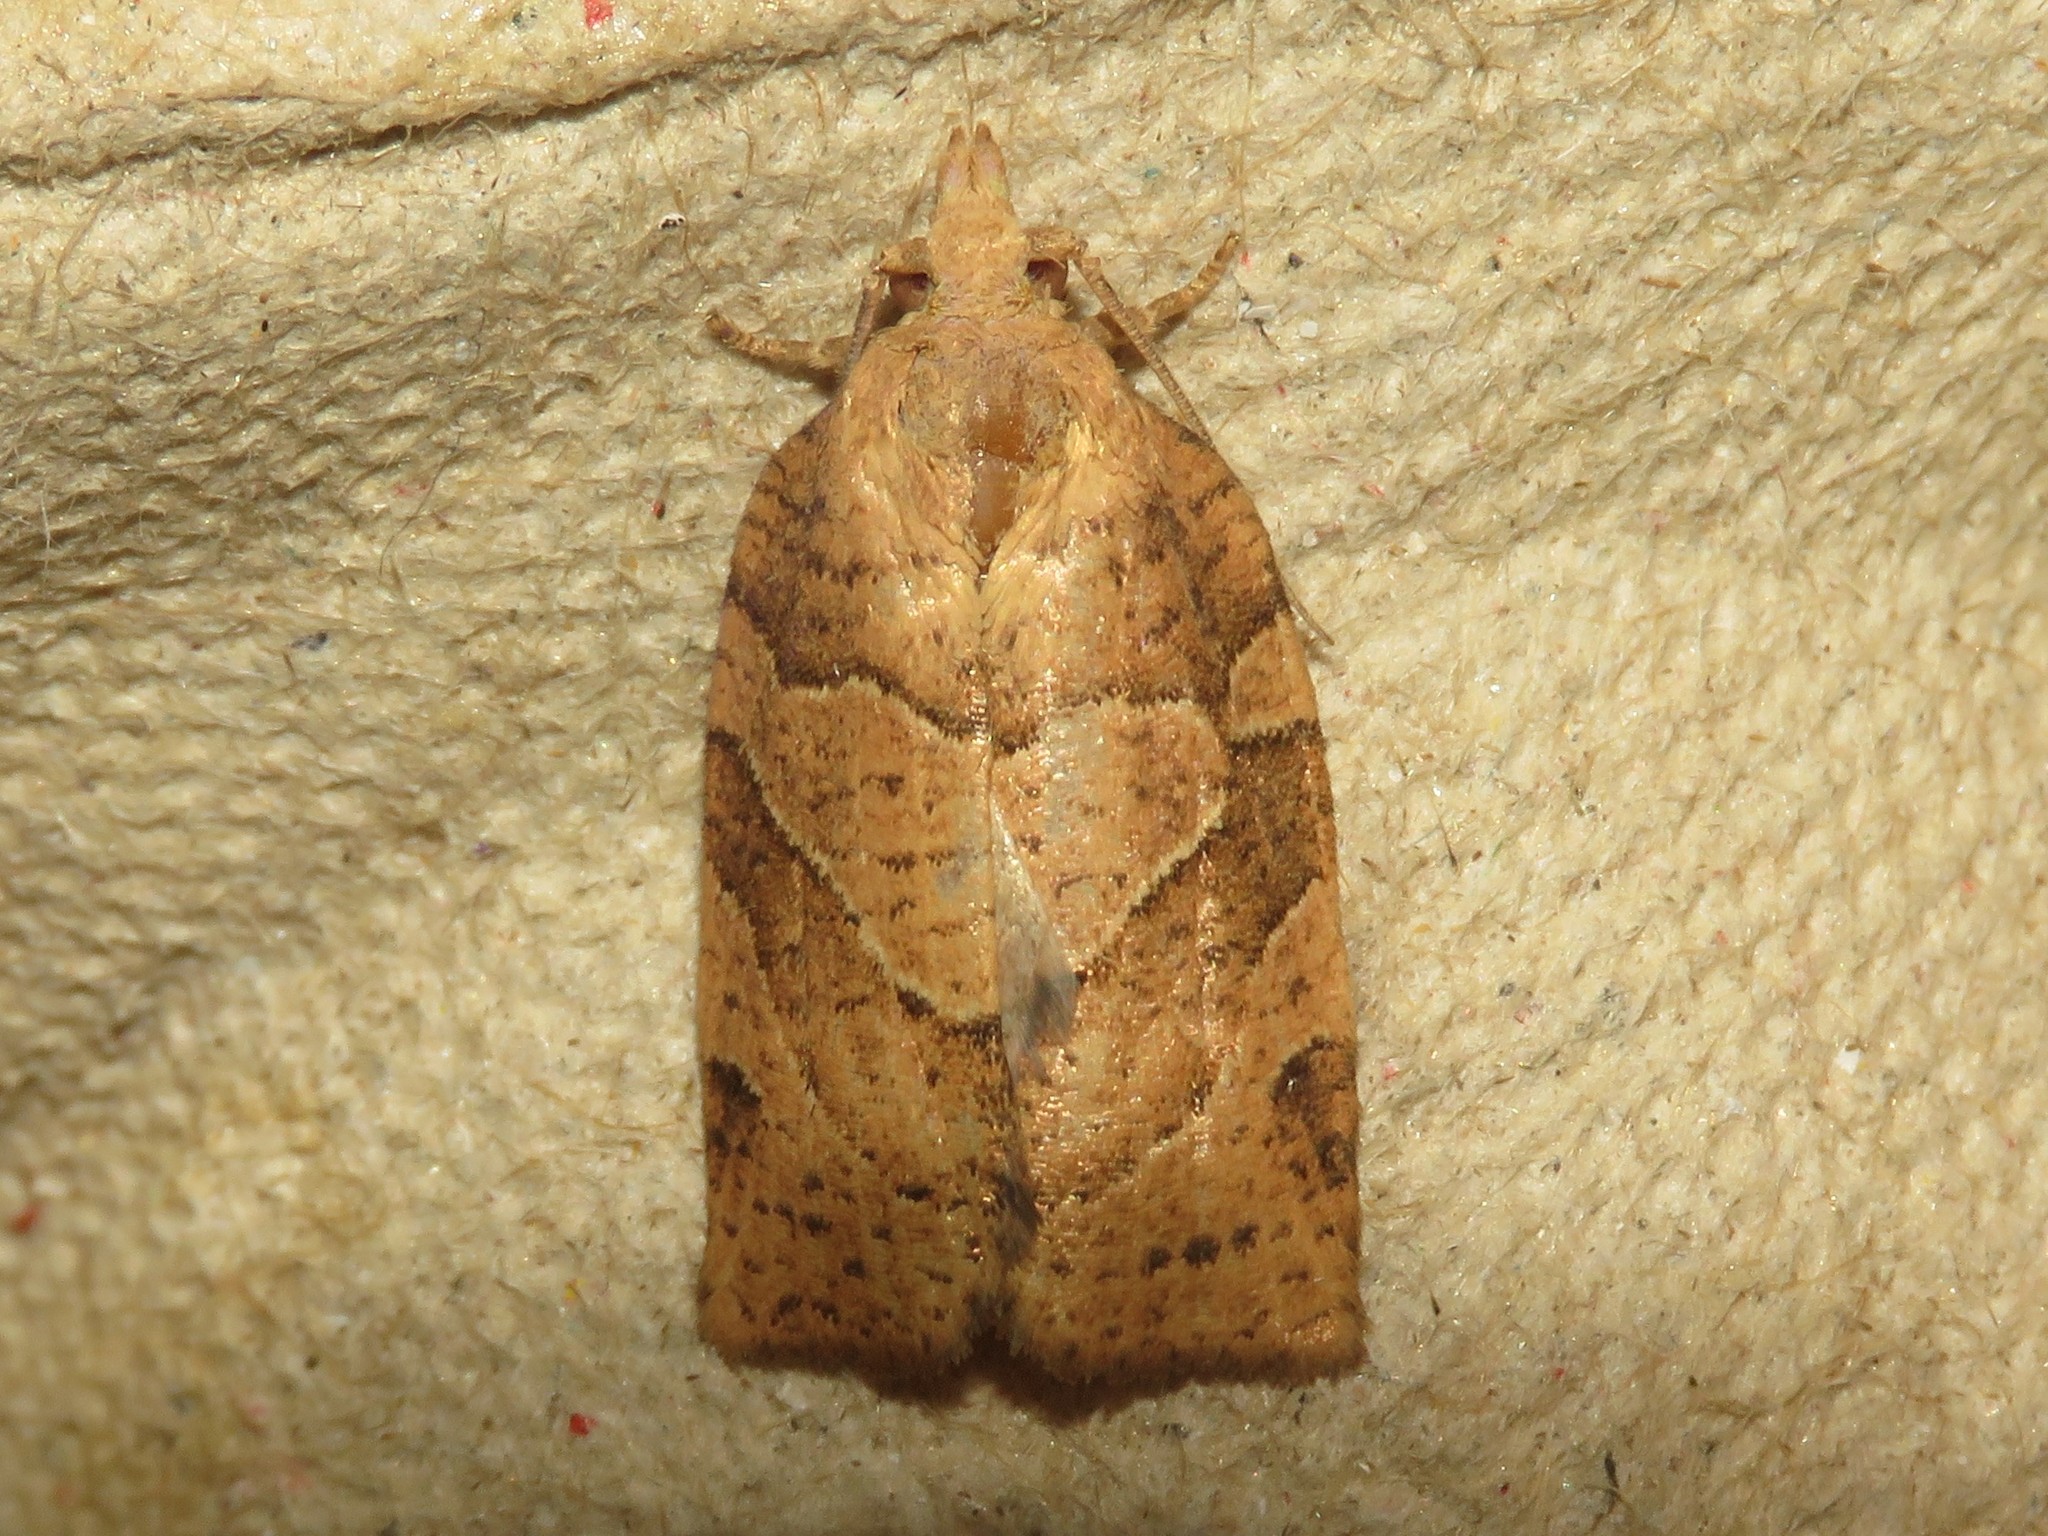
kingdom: Animalia
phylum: Arthropoda
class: Insecta
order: Lepidoptera
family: Tortricidae
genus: Pandemis
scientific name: Pandemis lamprosana
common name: Woodgrain leafroller moth
